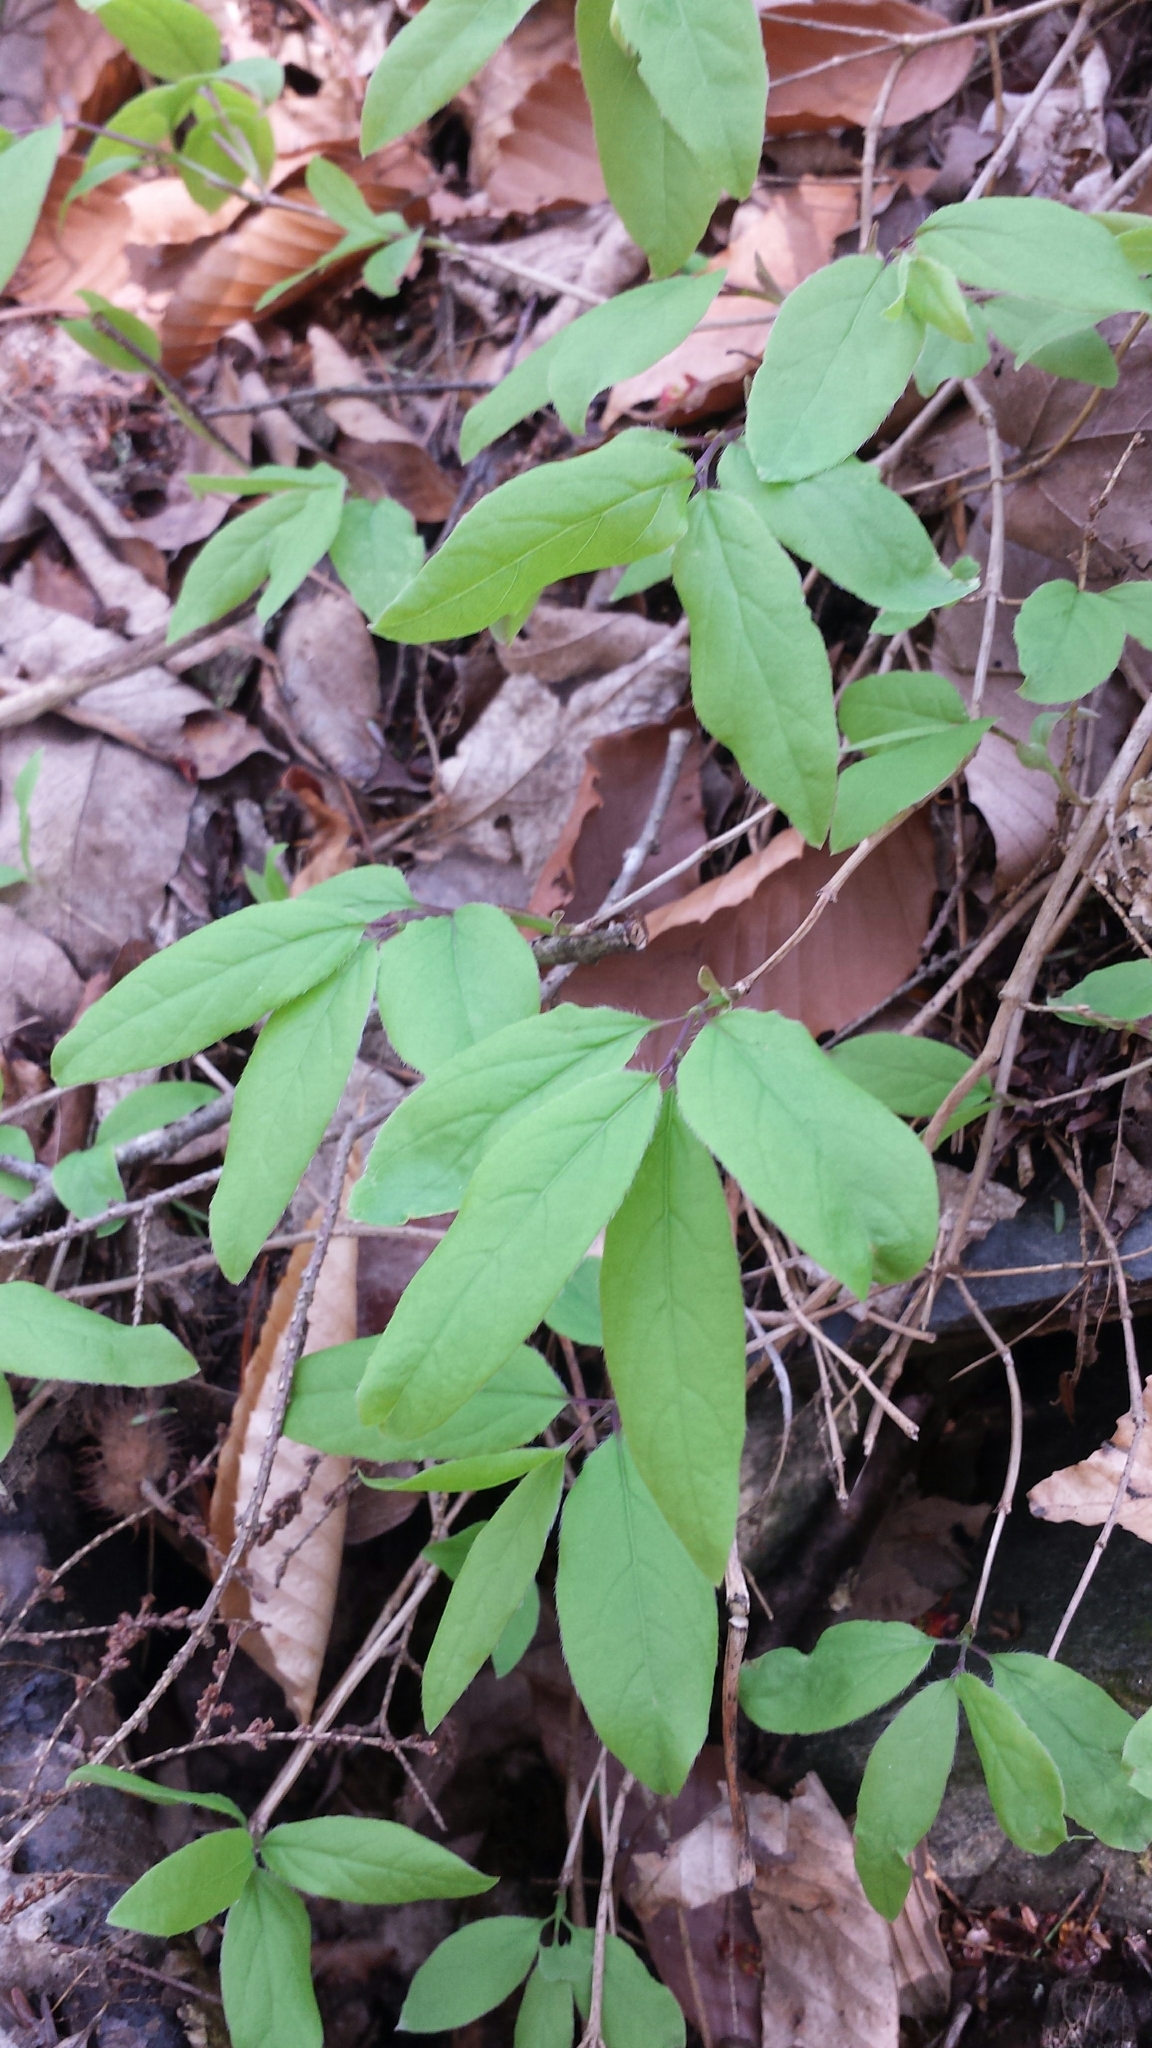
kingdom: Plantae
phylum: Tracheophyta
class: Magnoliopsida
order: Dipsacales
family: Caprifoliaceae
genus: Lonicera
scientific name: Lonicera canadensis
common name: American fly-honeysuckle
